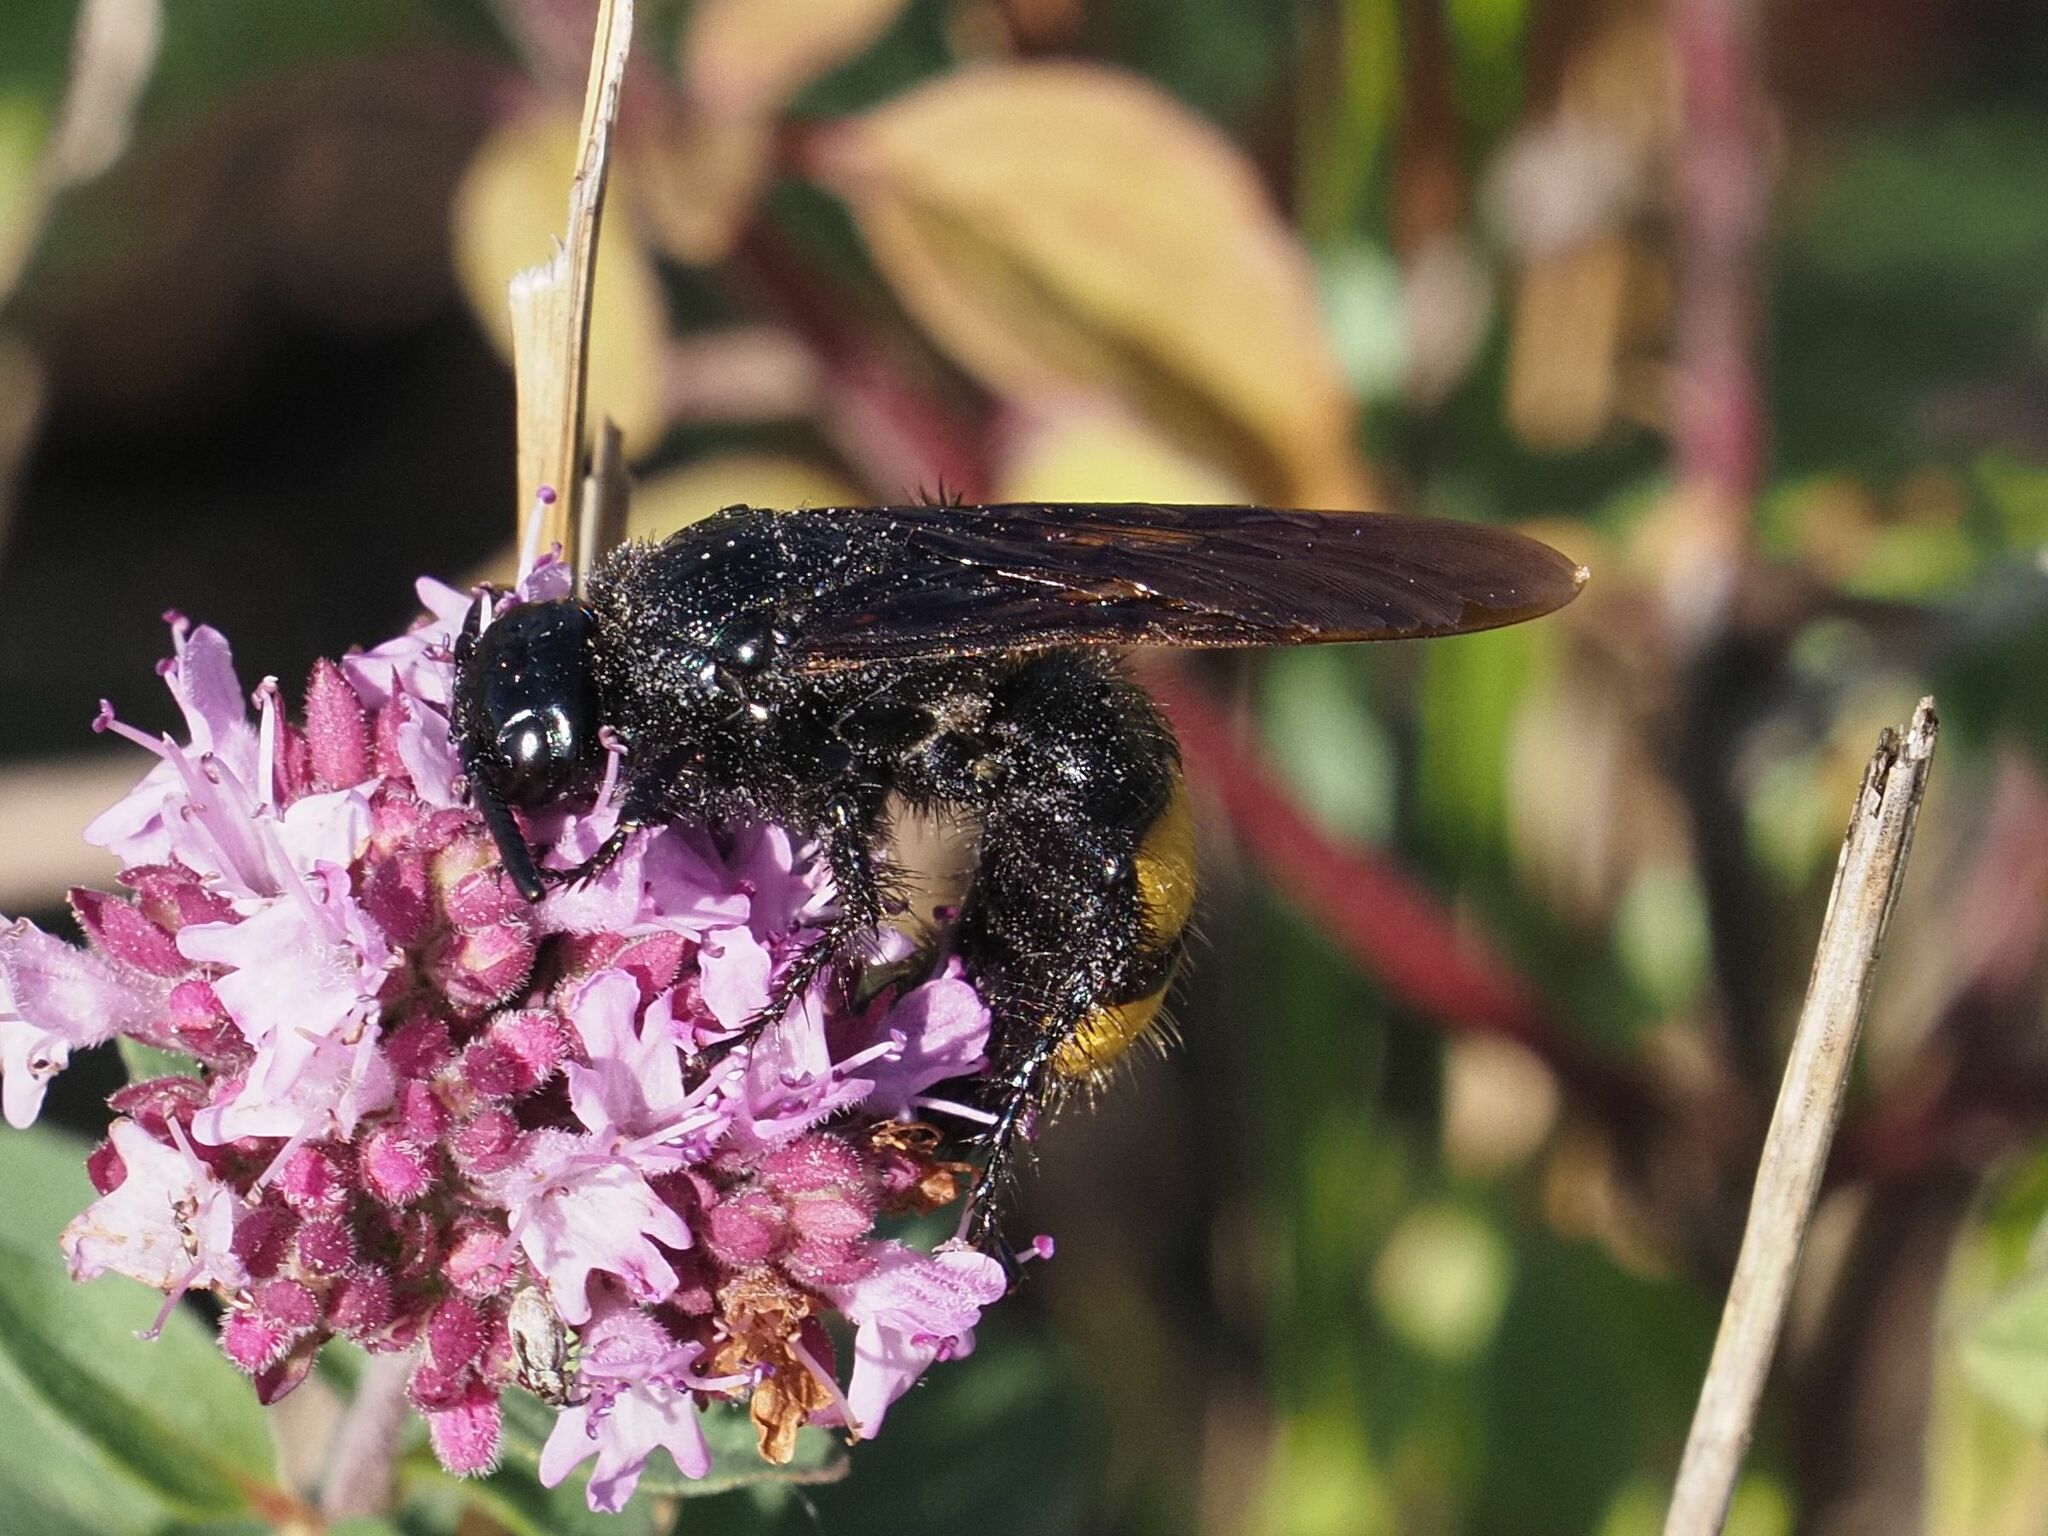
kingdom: Animalia
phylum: Arthropoda
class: Insecta
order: Hymenoptera
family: Scoliidae
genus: Scolia
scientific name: Scolia hirta
